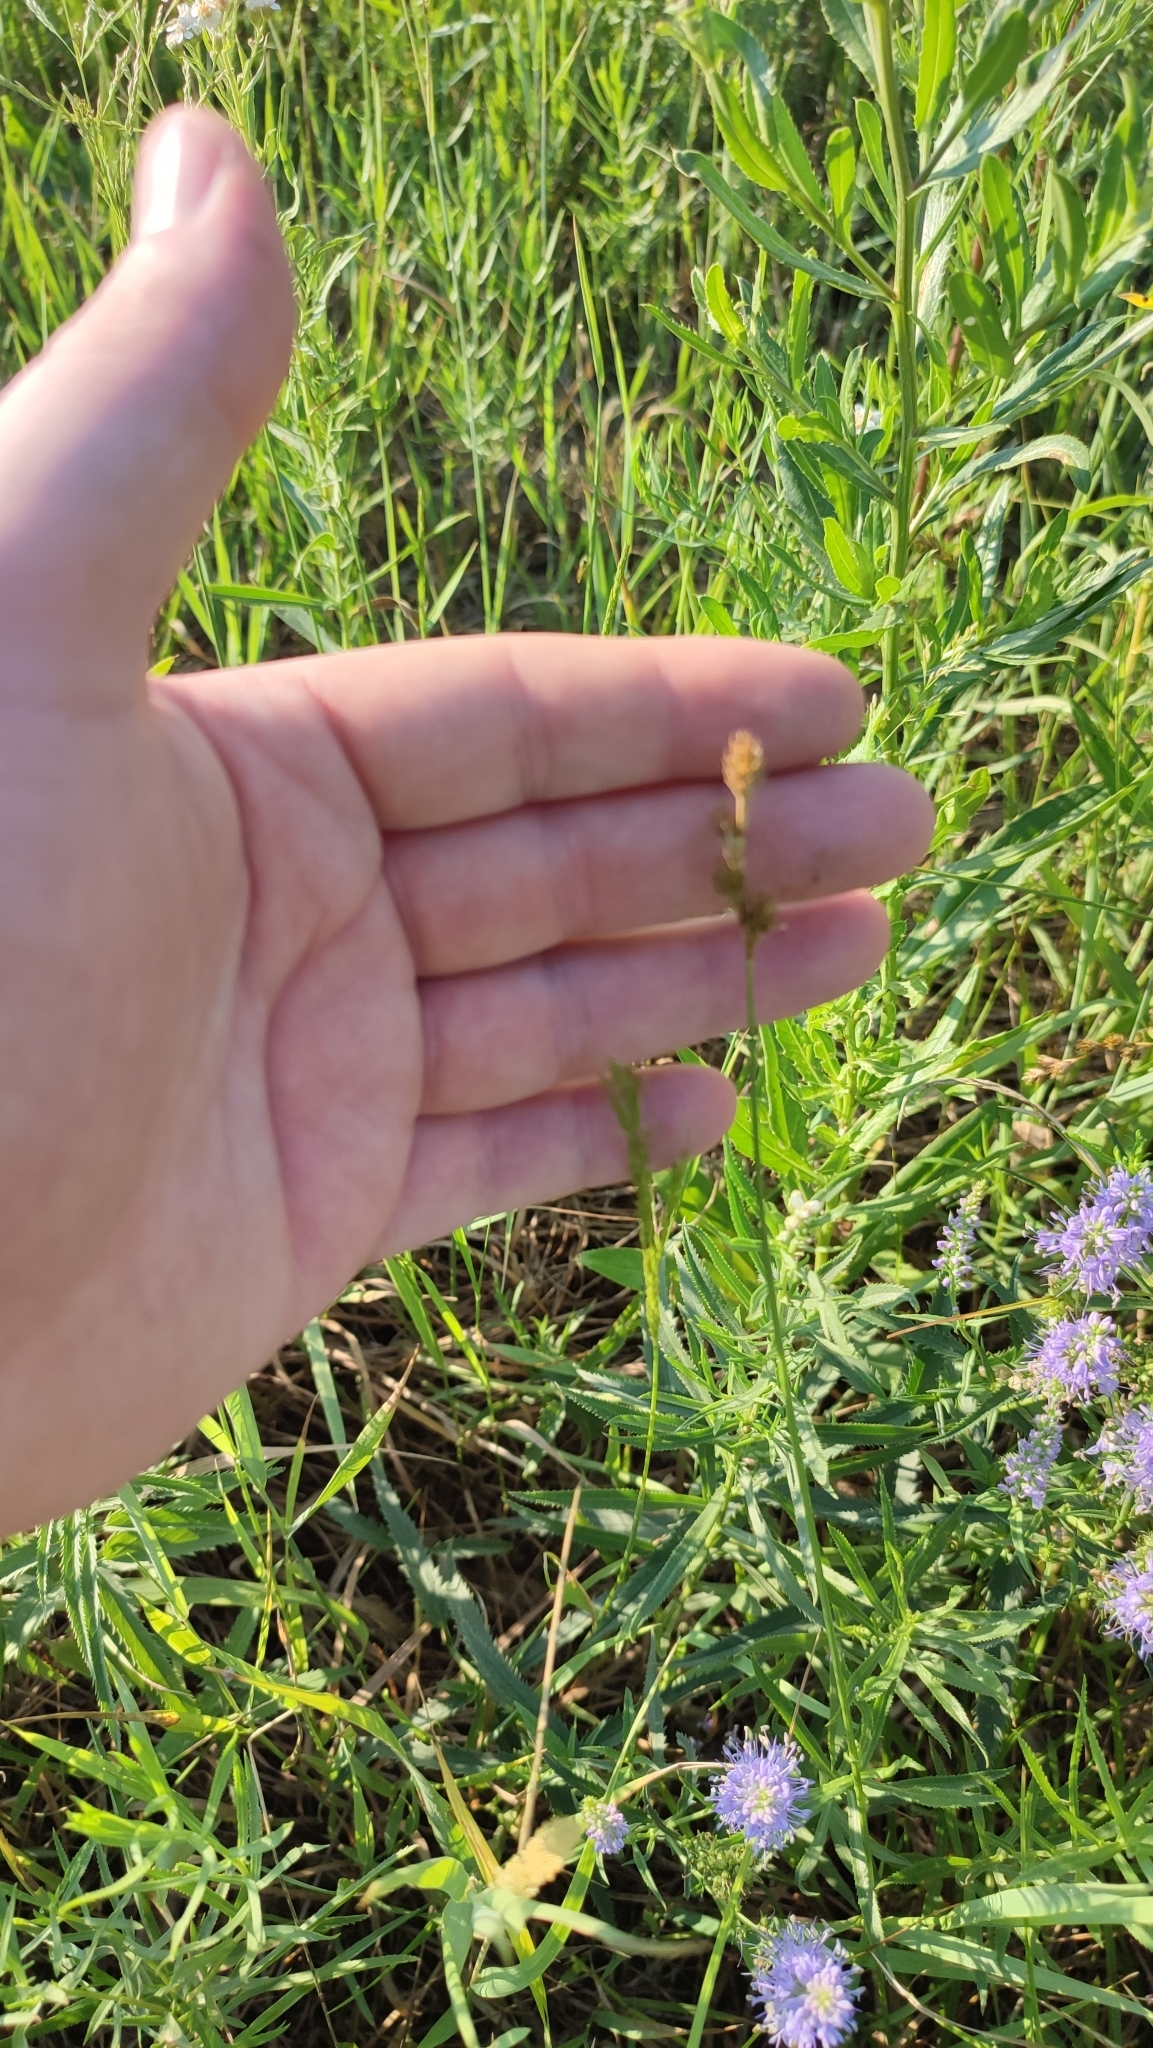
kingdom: Plantae
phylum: Tracheophyta
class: Liliopsida
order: Poales
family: Cyperaceae
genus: Carex
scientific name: Carex leporina
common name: Oval sedge
